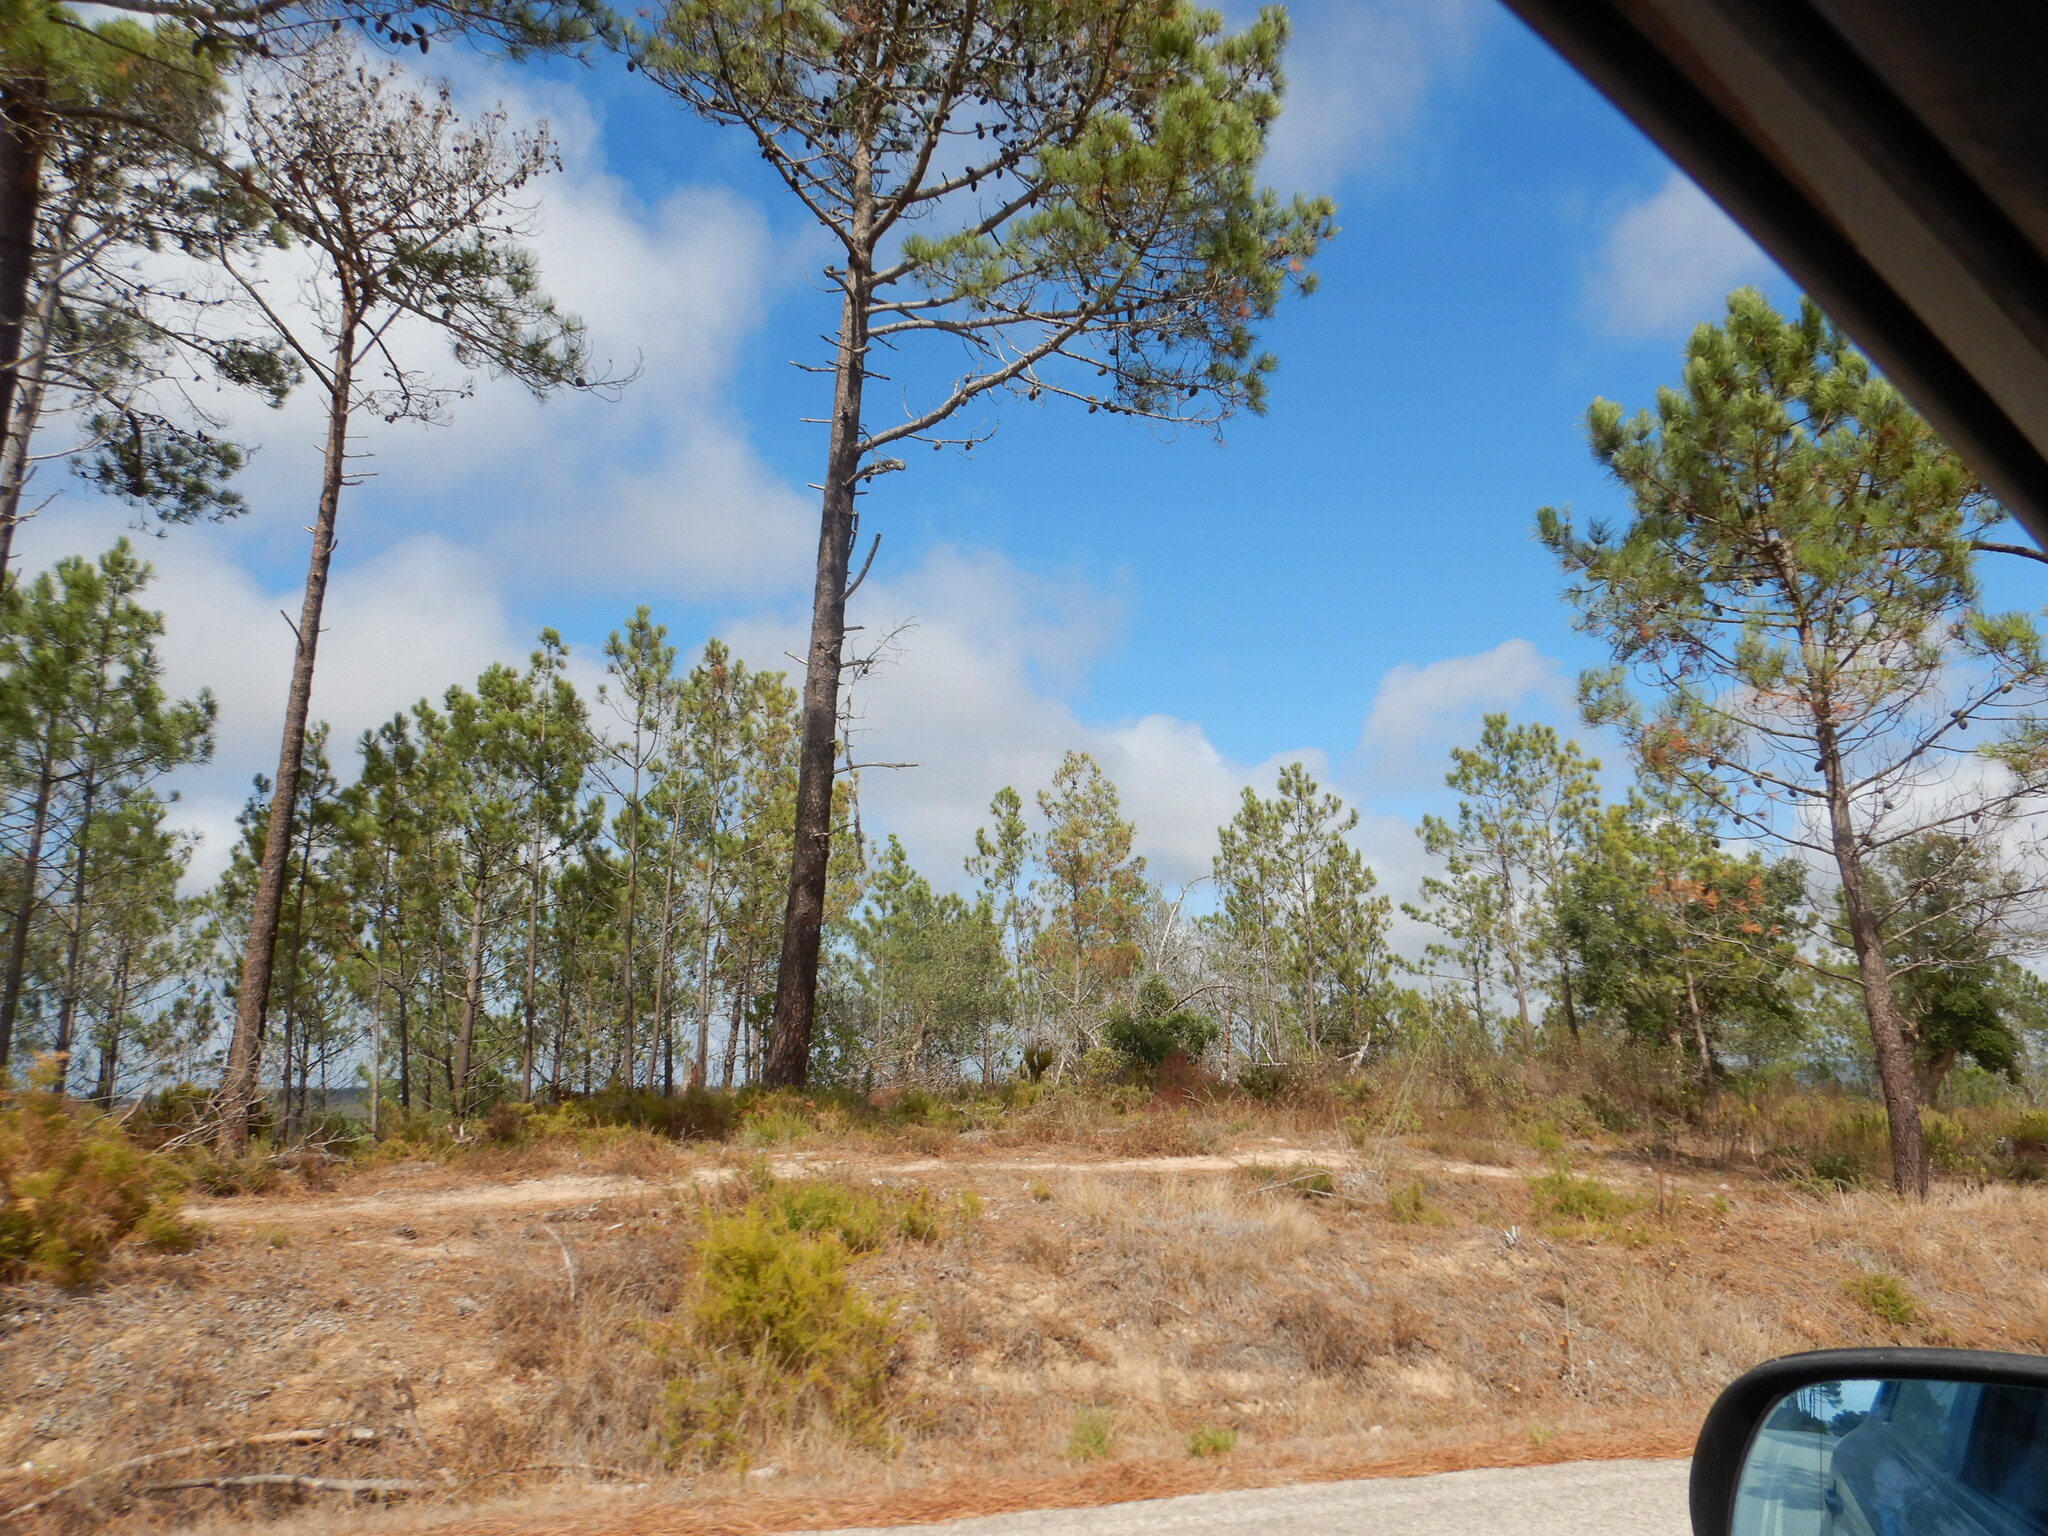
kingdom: Plantae
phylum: Tracheophyta
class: Pinopsida
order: Pinales
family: Pinaceae
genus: Pinus
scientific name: Pinus pinaster
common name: Maritime pine
